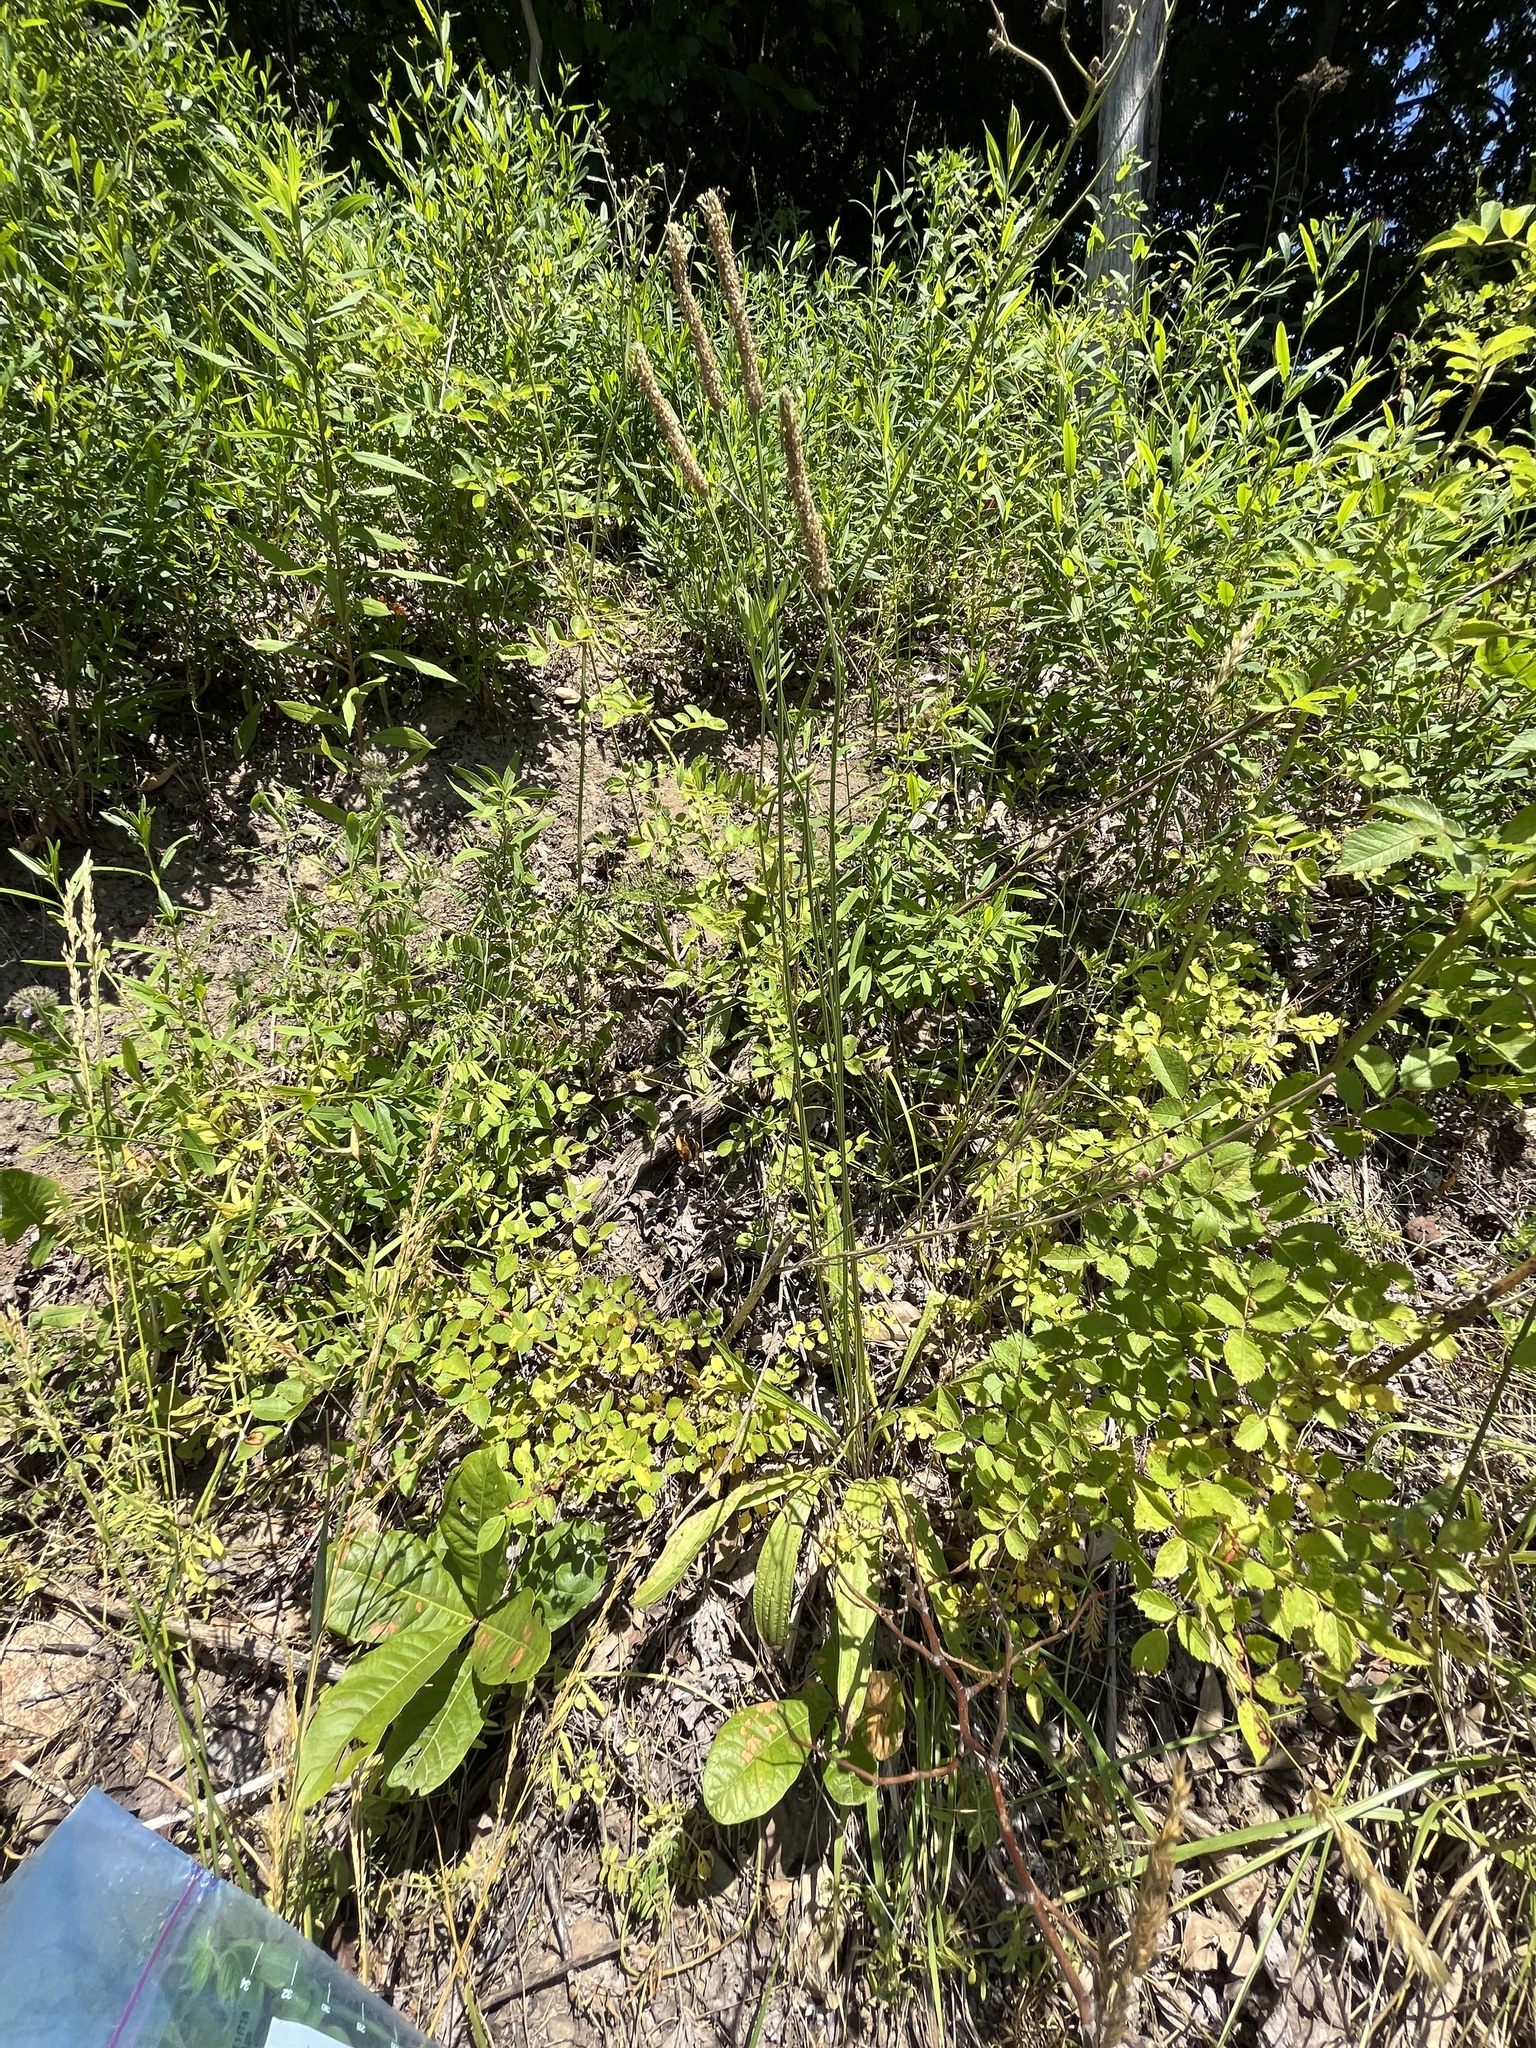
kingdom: Plantae
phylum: Tracheophyta
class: Magnoliopsida
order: Lamiales
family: Plantaginaceae
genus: Plantago
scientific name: Plantago lanceolata
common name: Ribwort plantain
